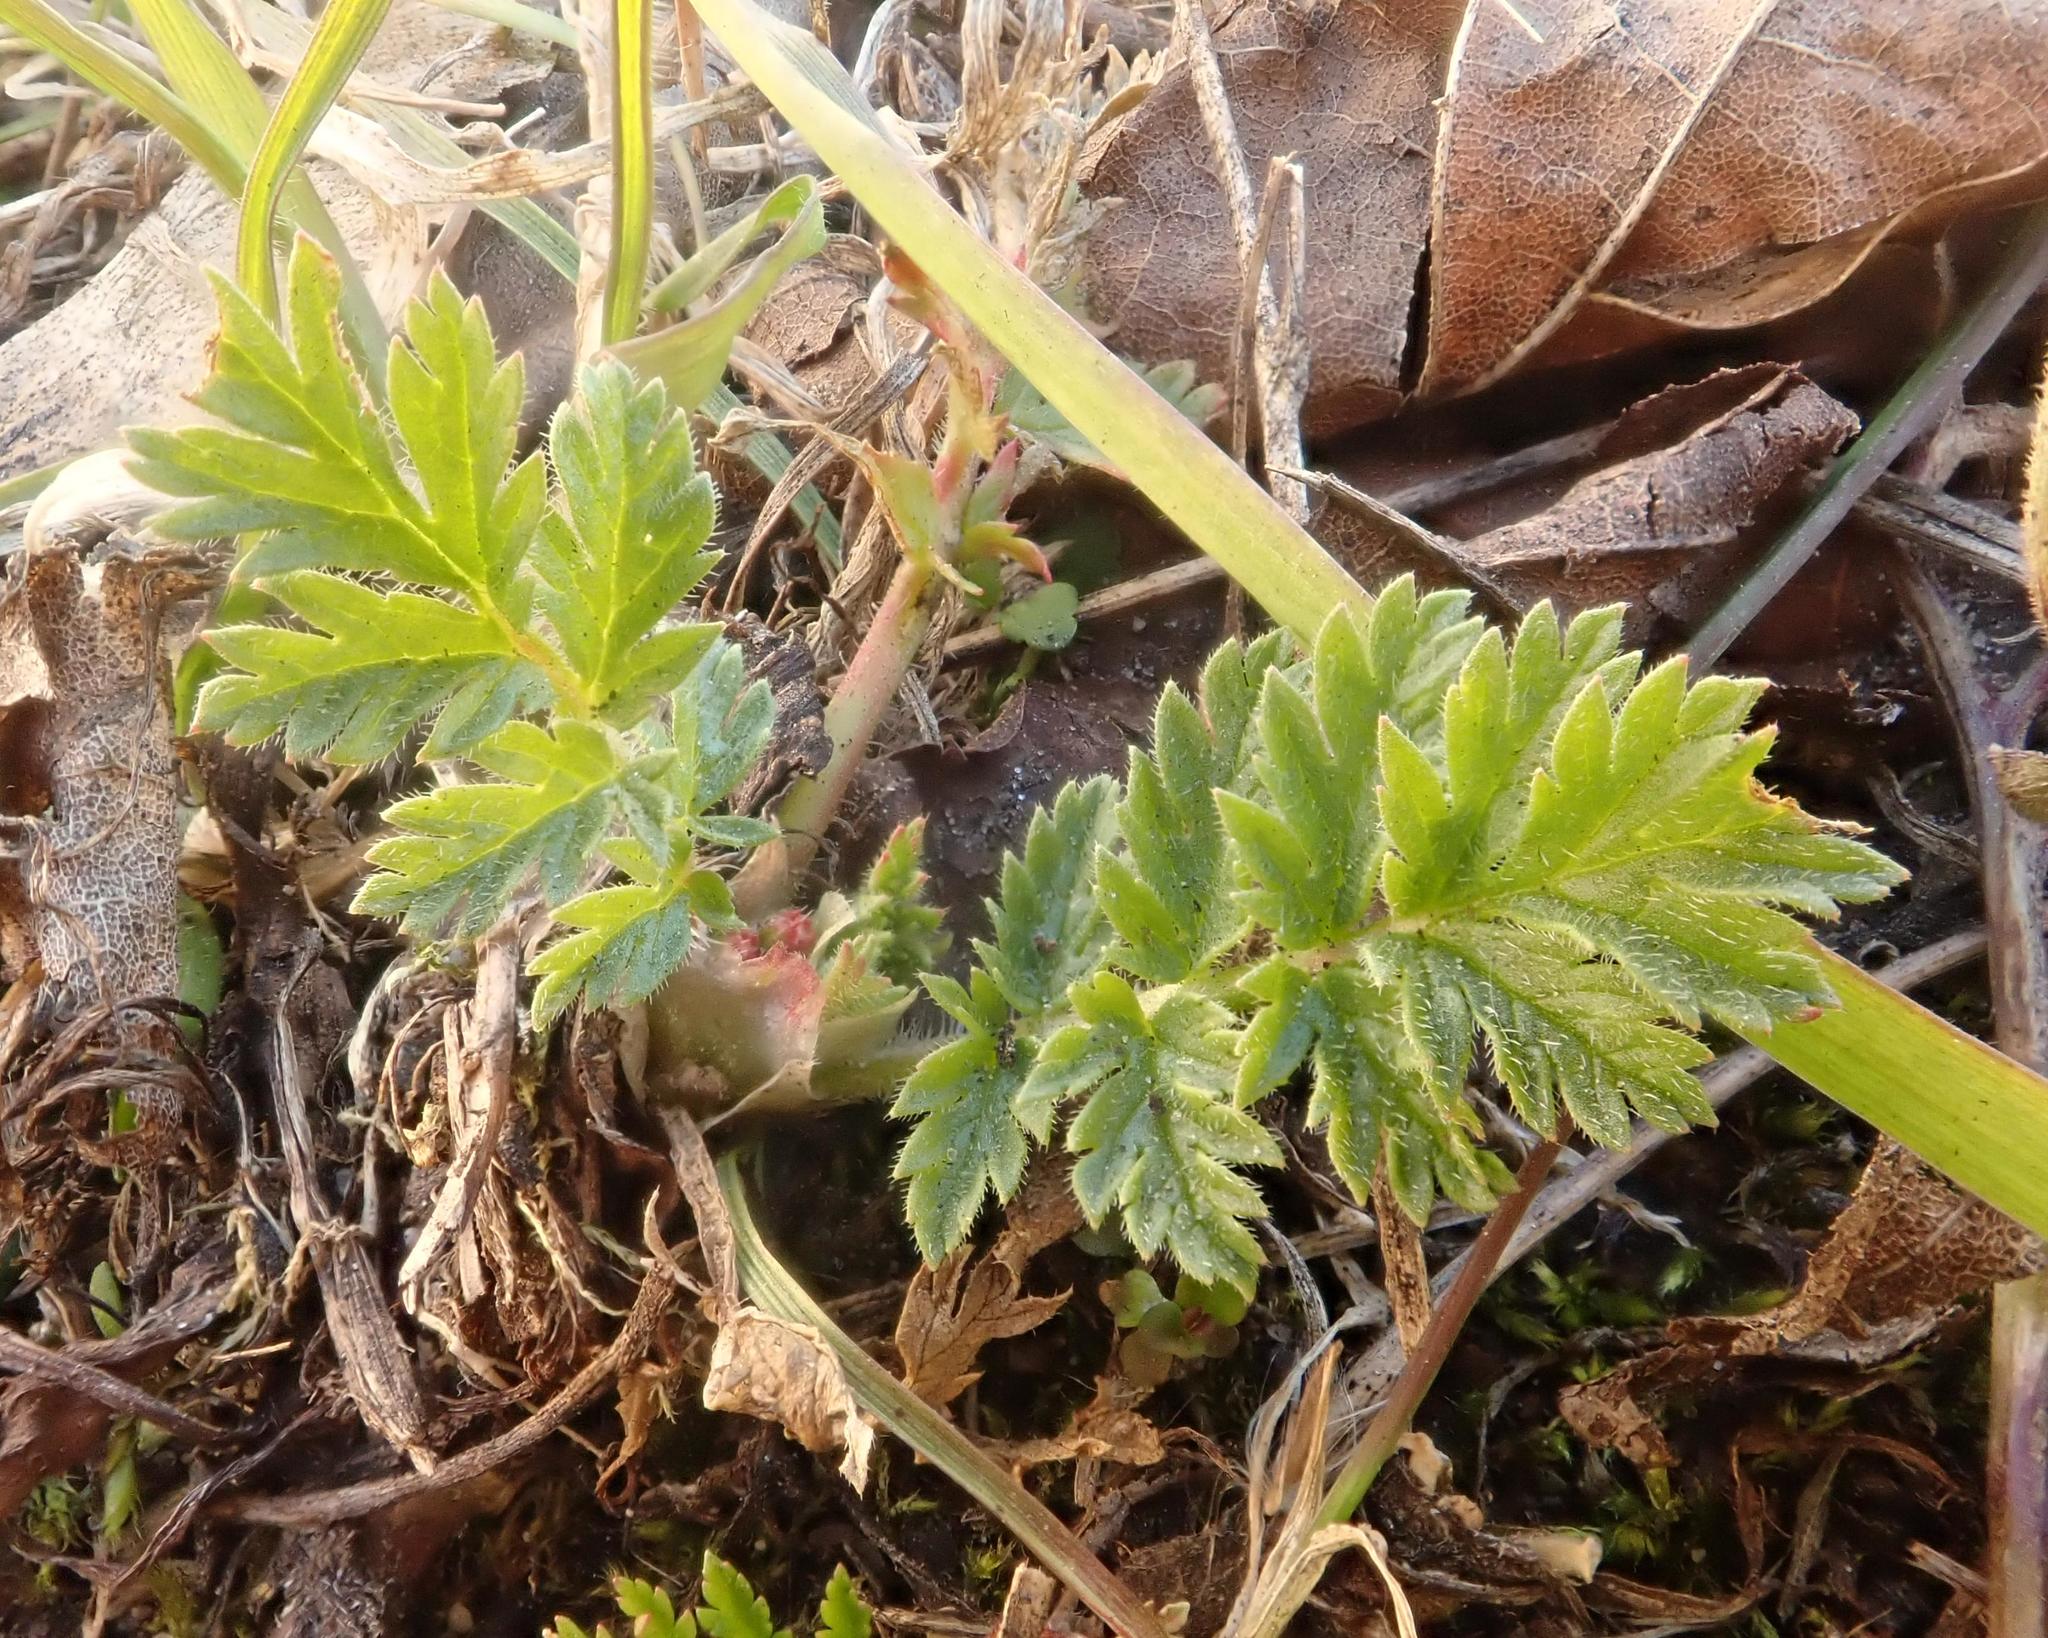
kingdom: Plantae
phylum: Tracheophyta
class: Magnoliopsida
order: Geraniales
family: Geraniaceae
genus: Erodium
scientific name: Erodium cicutarium
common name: Common stork's-bill
